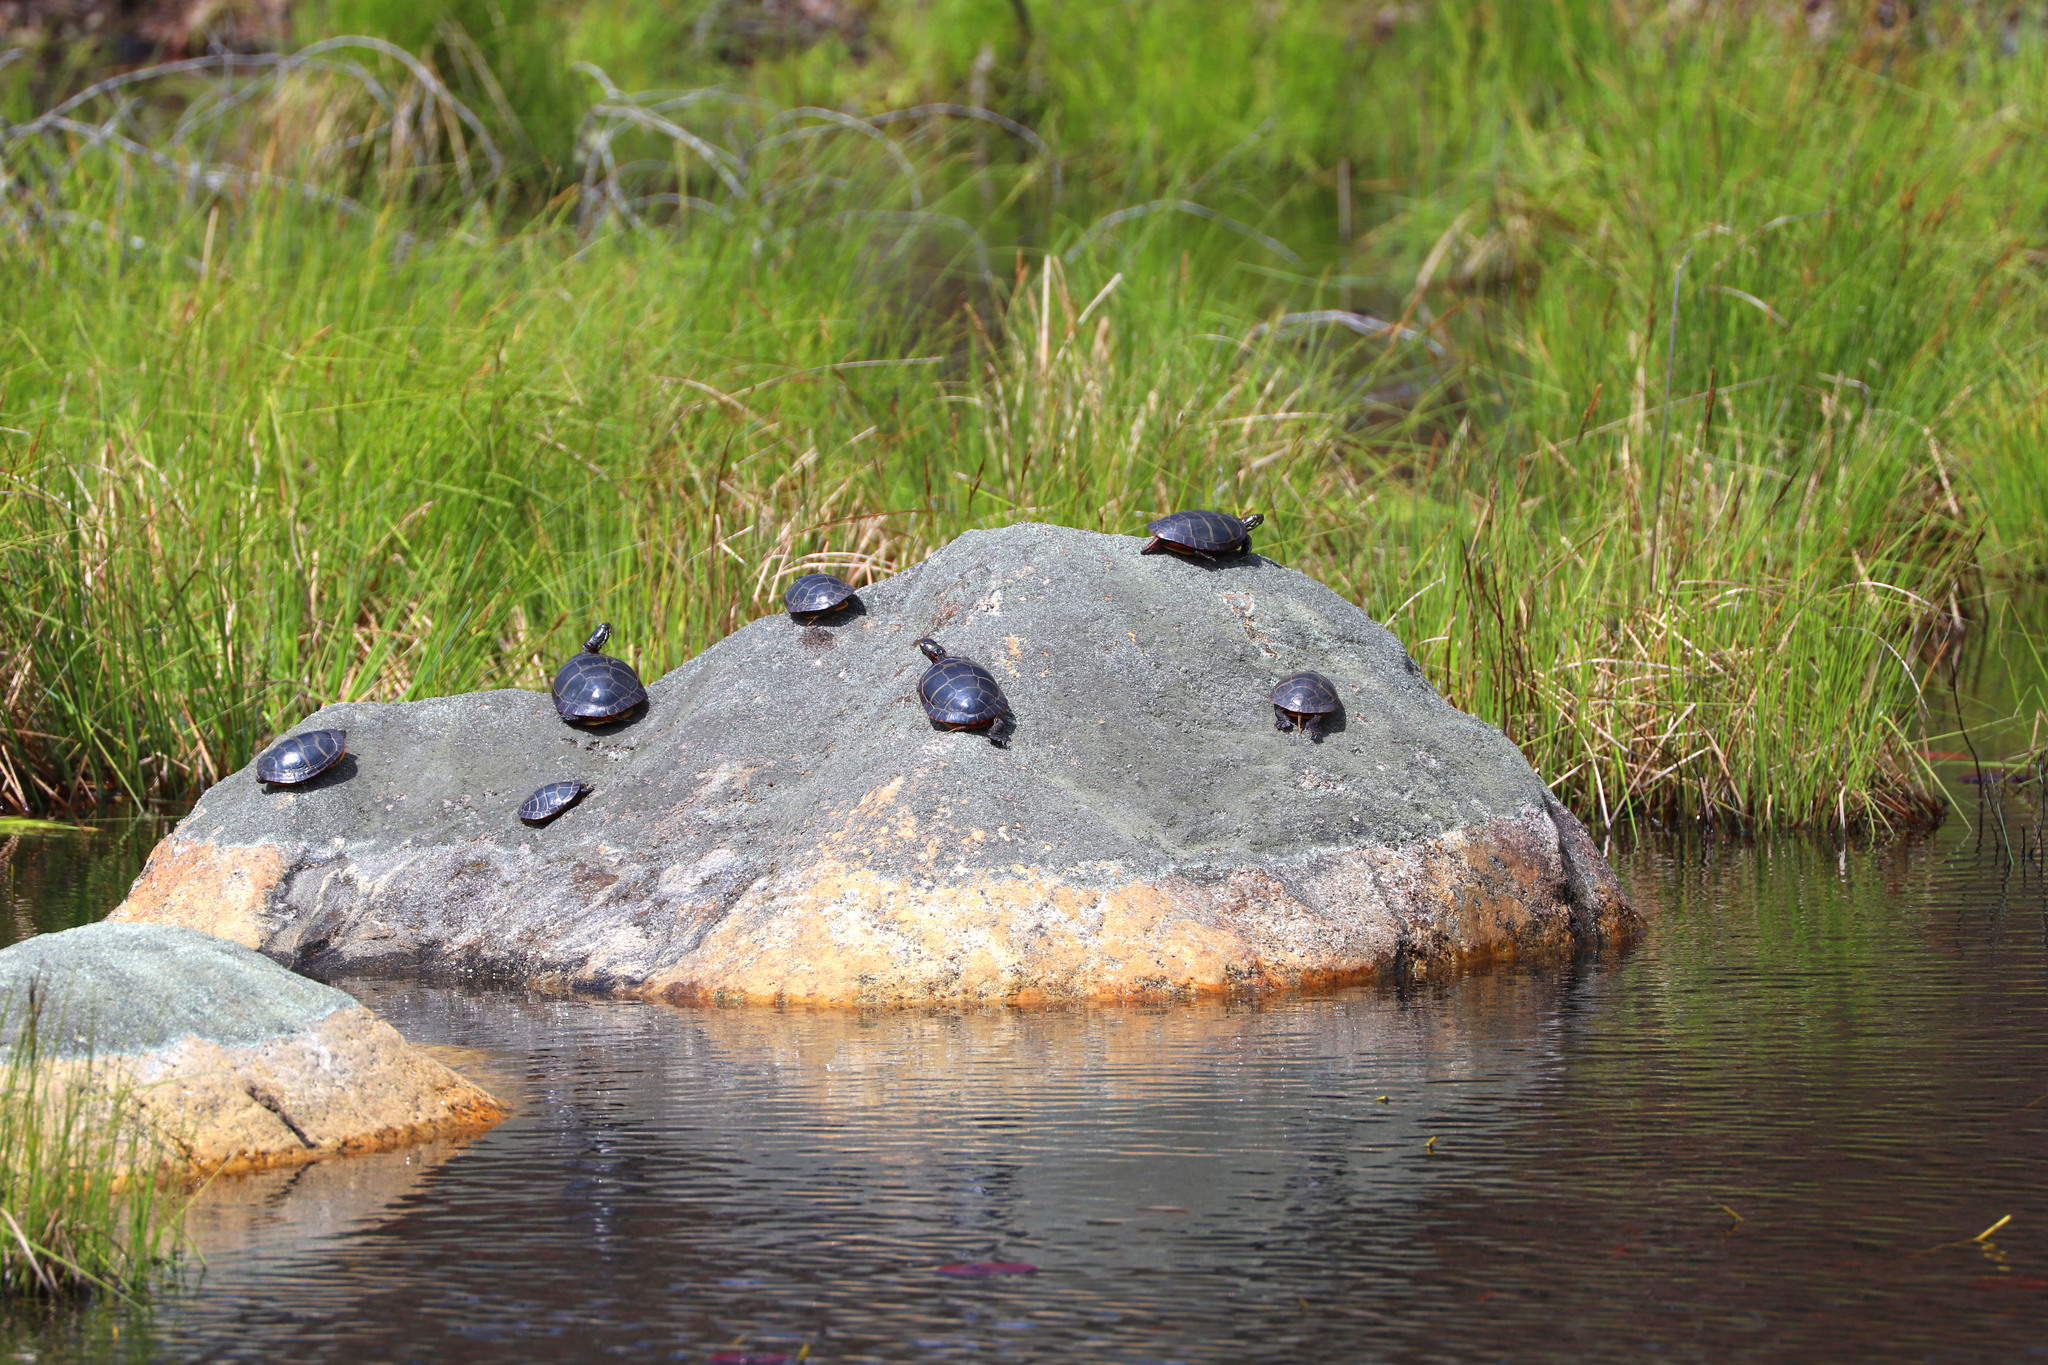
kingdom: Animalia
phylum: Chordata
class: Testudines
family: Emydidae
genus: Chrysemys
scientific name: Chrysemys picta
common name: Painted turtle
